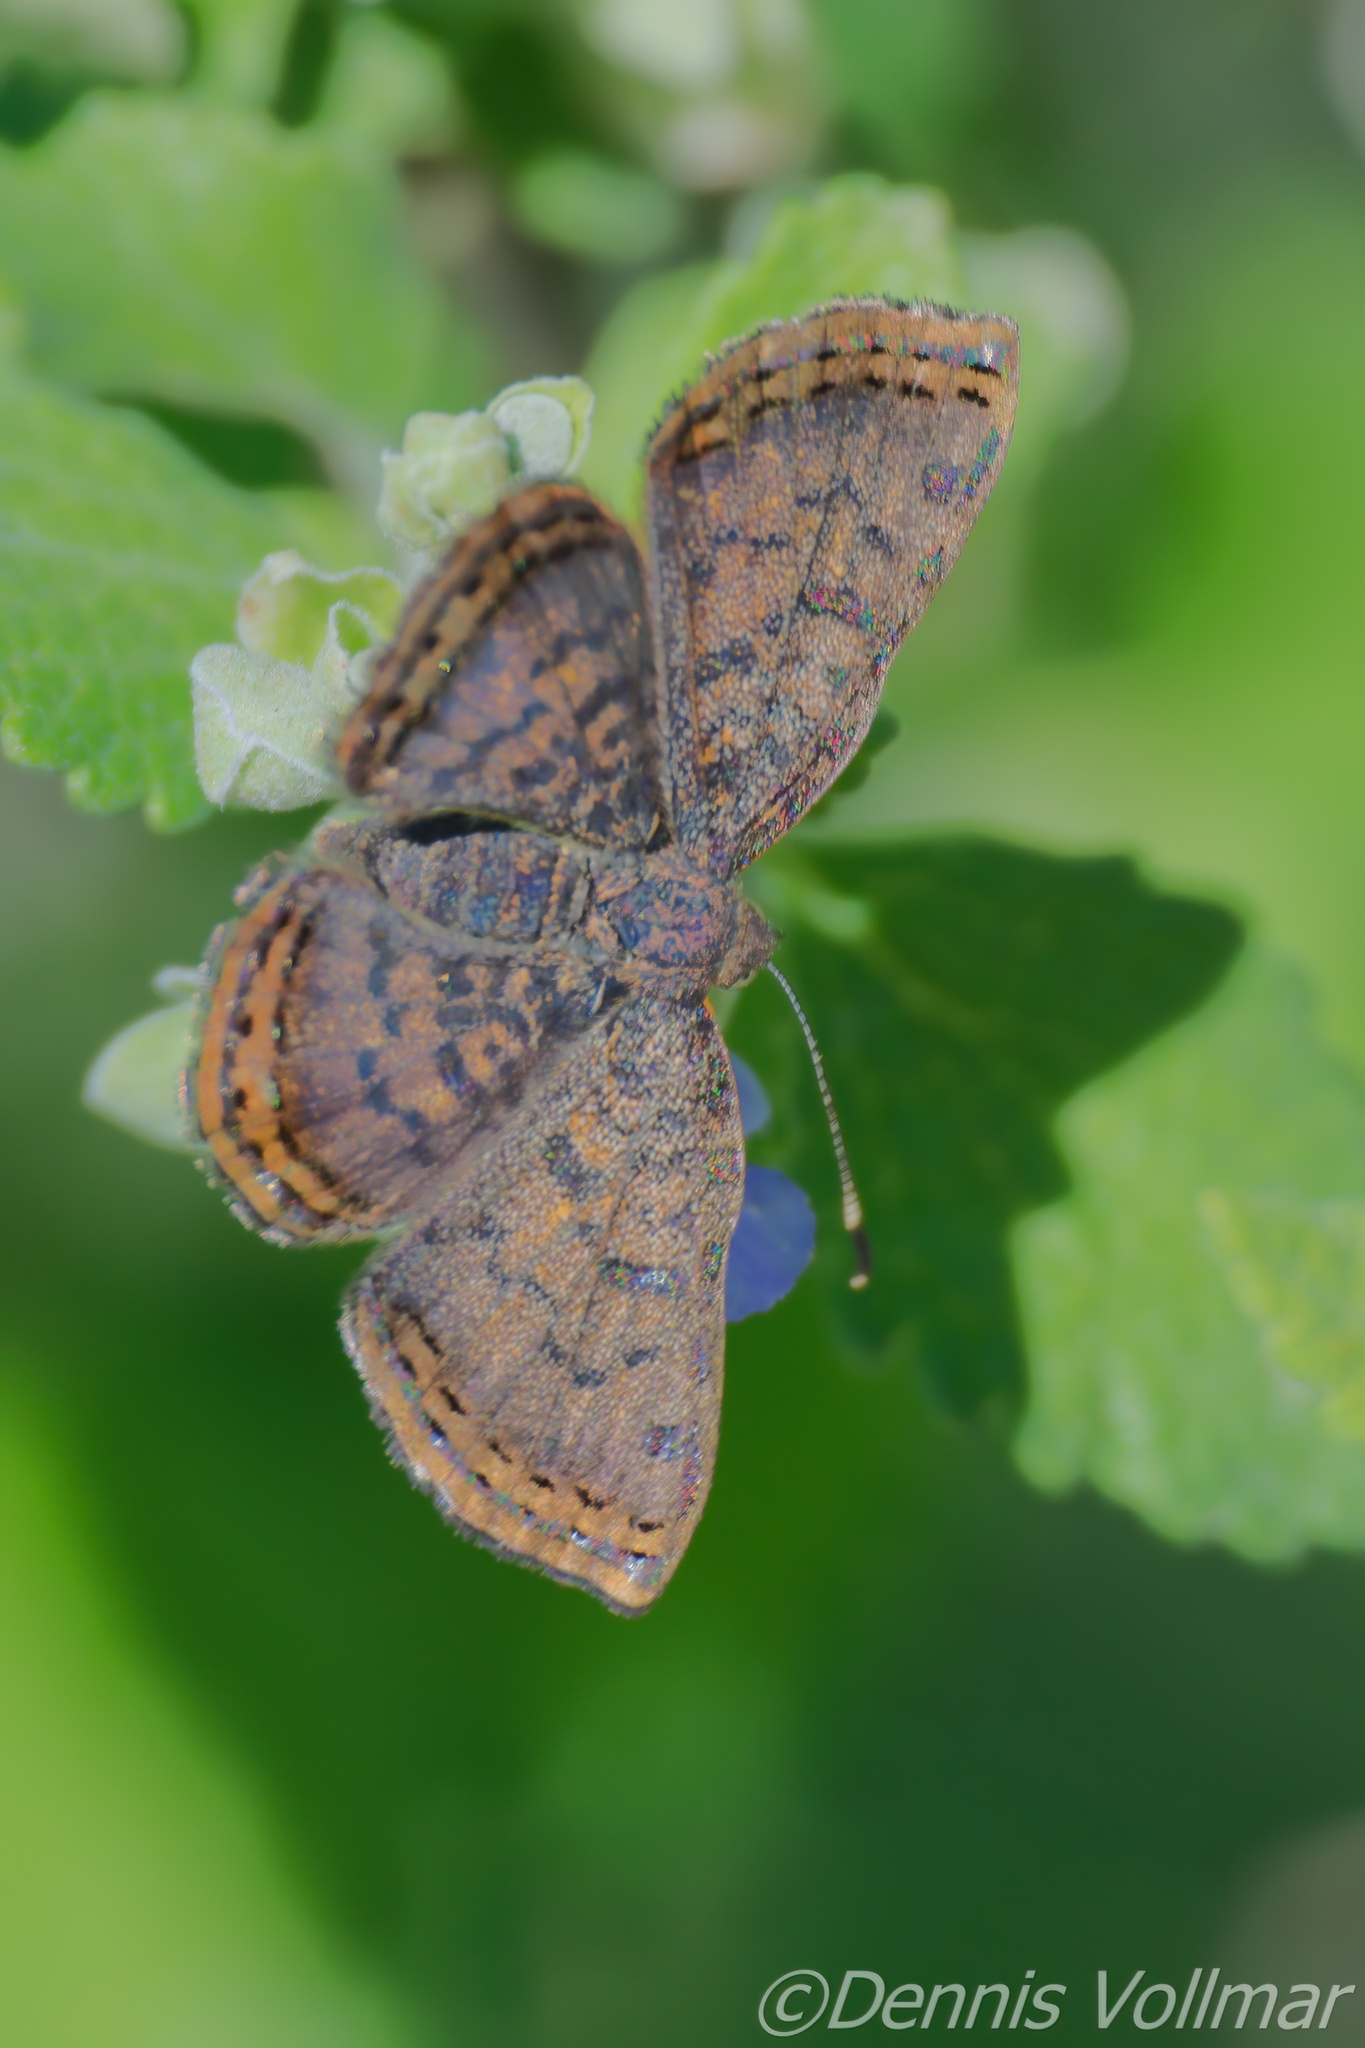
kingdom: Animalia
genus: Caria
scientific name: Caria ino
